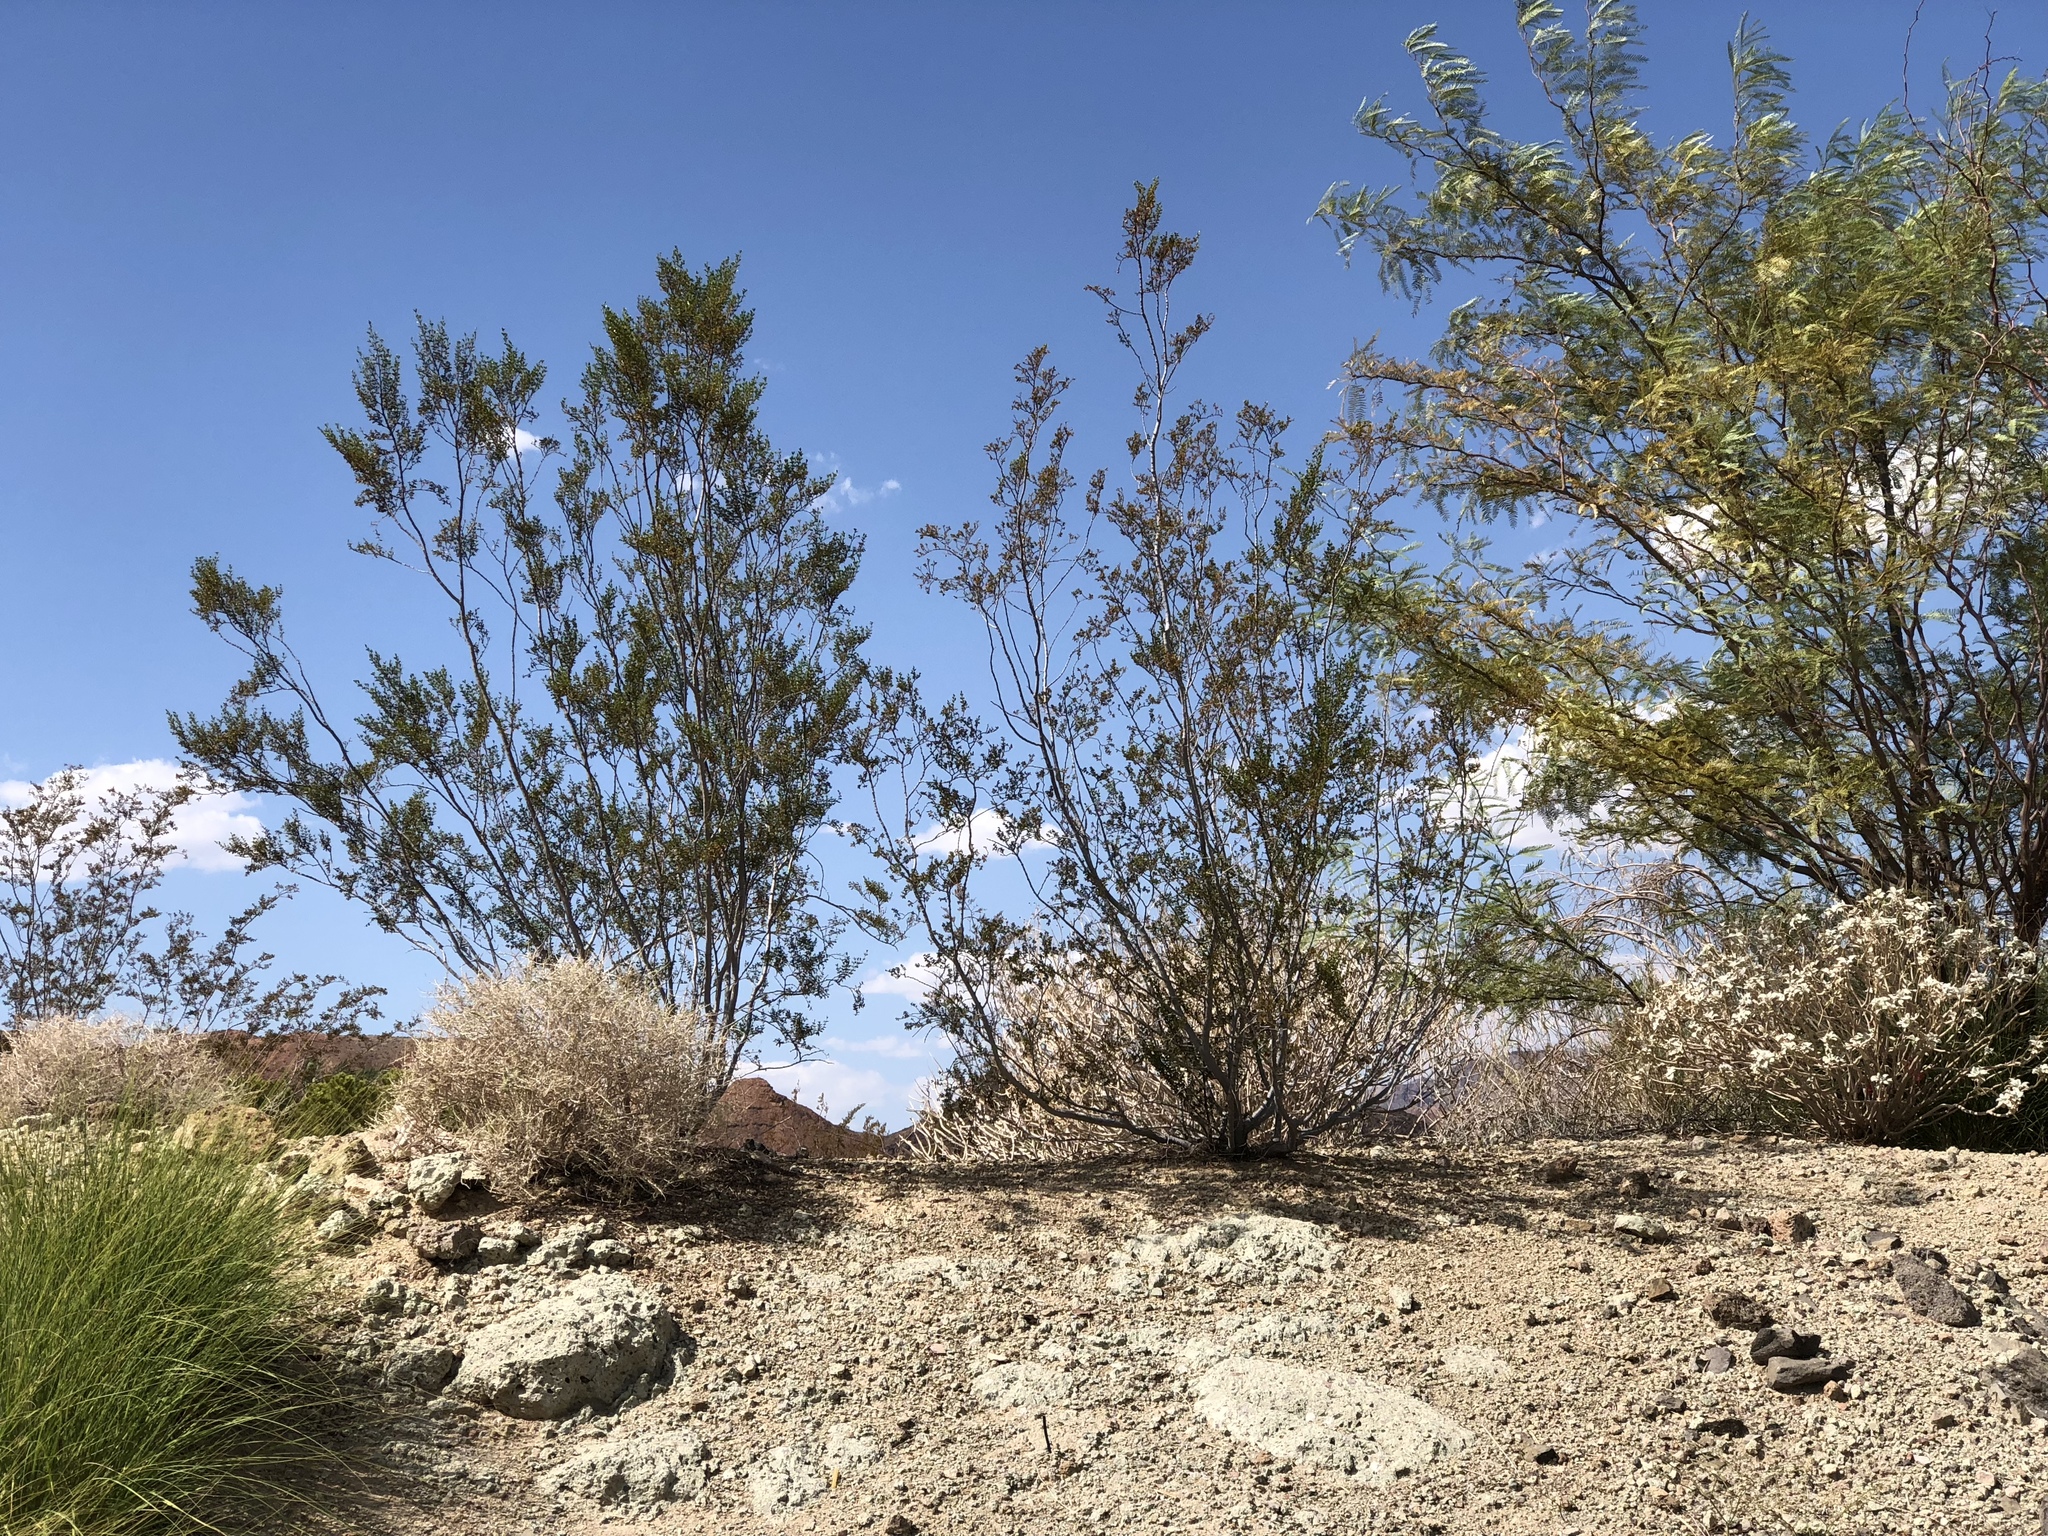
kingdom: Plantae
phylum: Tracheophyta
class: Magnoliopsida
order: Zygophyllales
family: Zygophyllaceae
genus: Larrea
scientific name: Larrea tridentata
